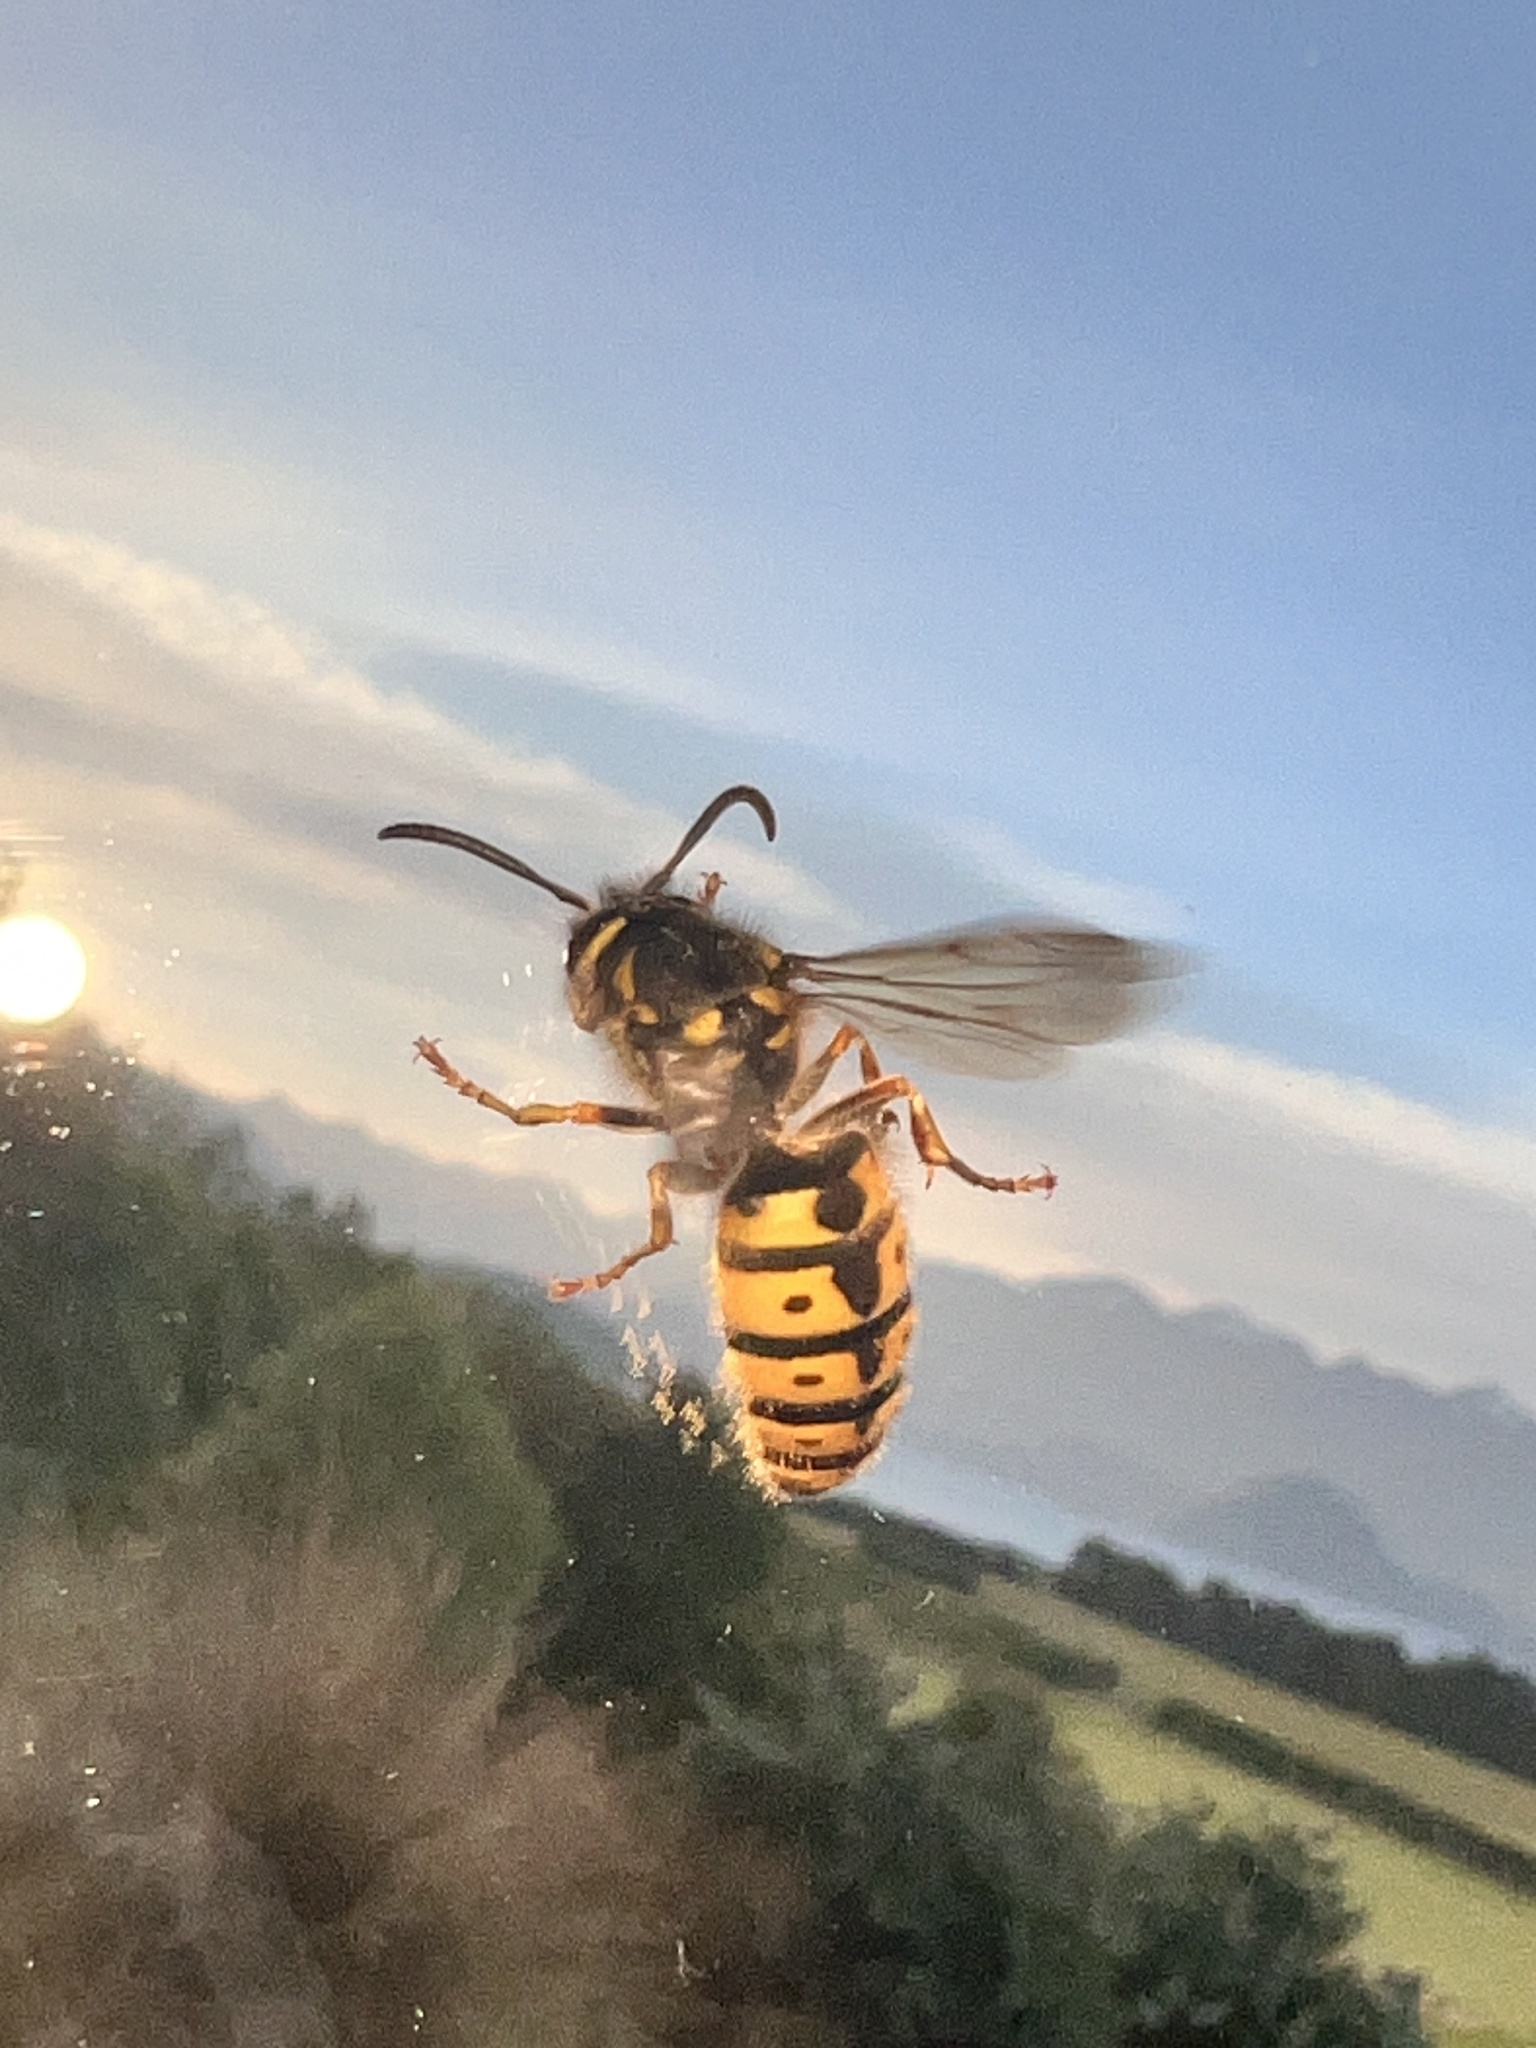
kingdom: Animalia
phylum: Arthropoda
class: Insecta
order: Hymenoptera
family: Vespidae
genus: Vespula
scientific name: Vespula germanica
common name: German wasp
